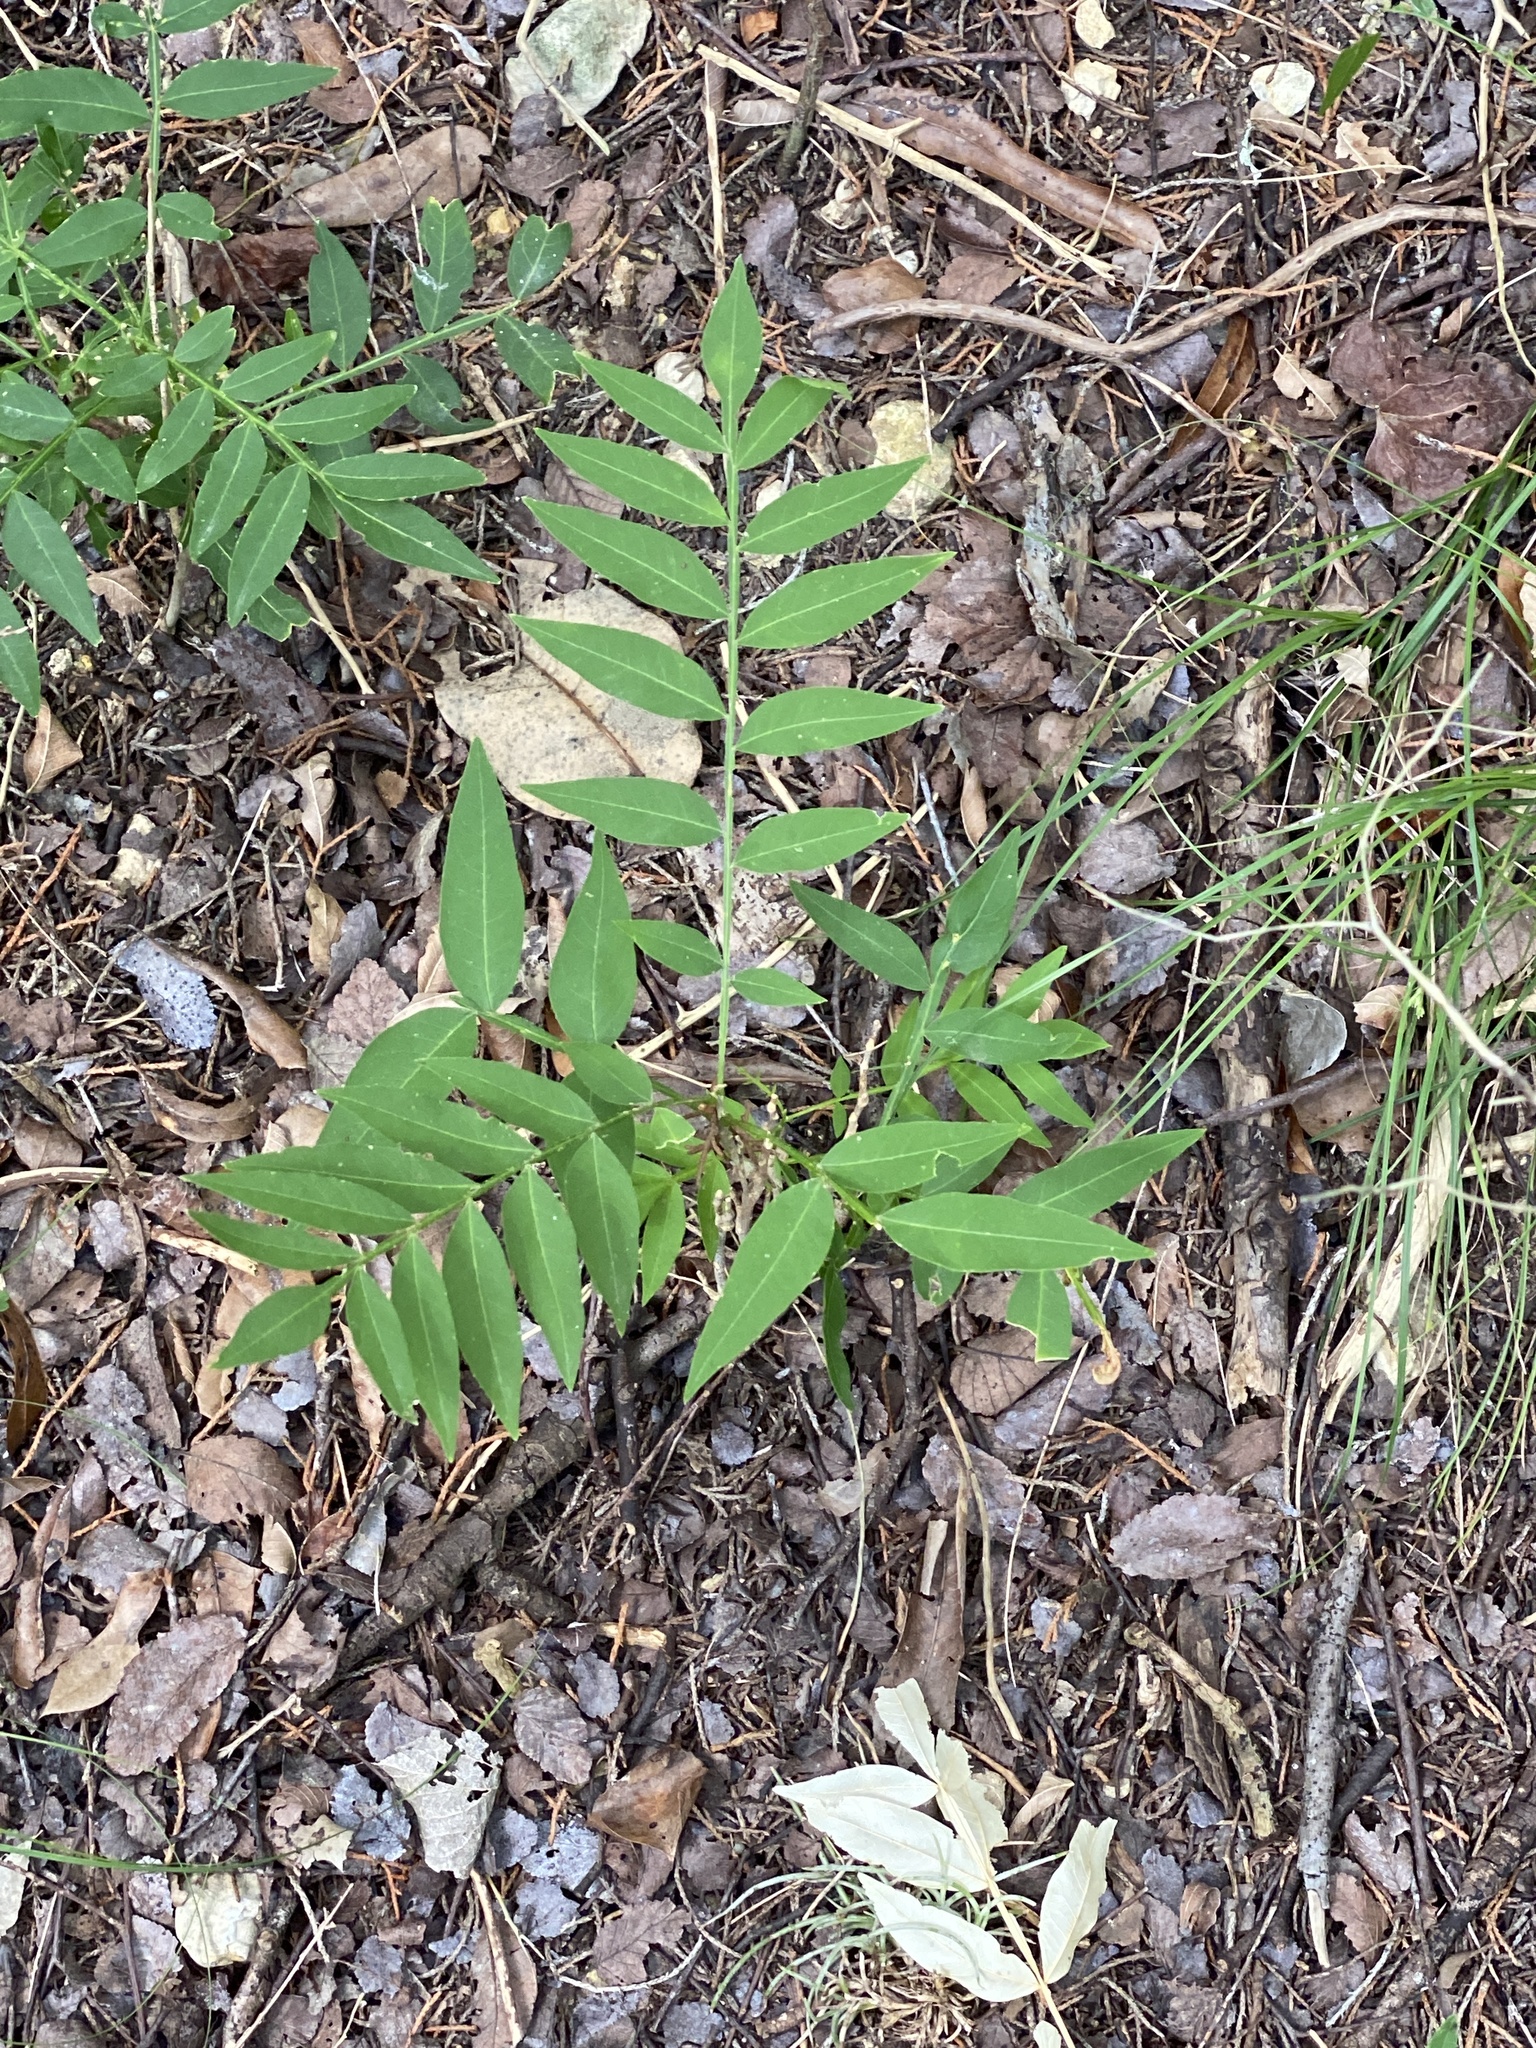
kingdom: Plantae
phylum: Tracheophyta
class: Magnoliopsida
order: Sapindales
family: Sapindaceae
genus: Sapindus
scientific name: Sapindus drummondii
